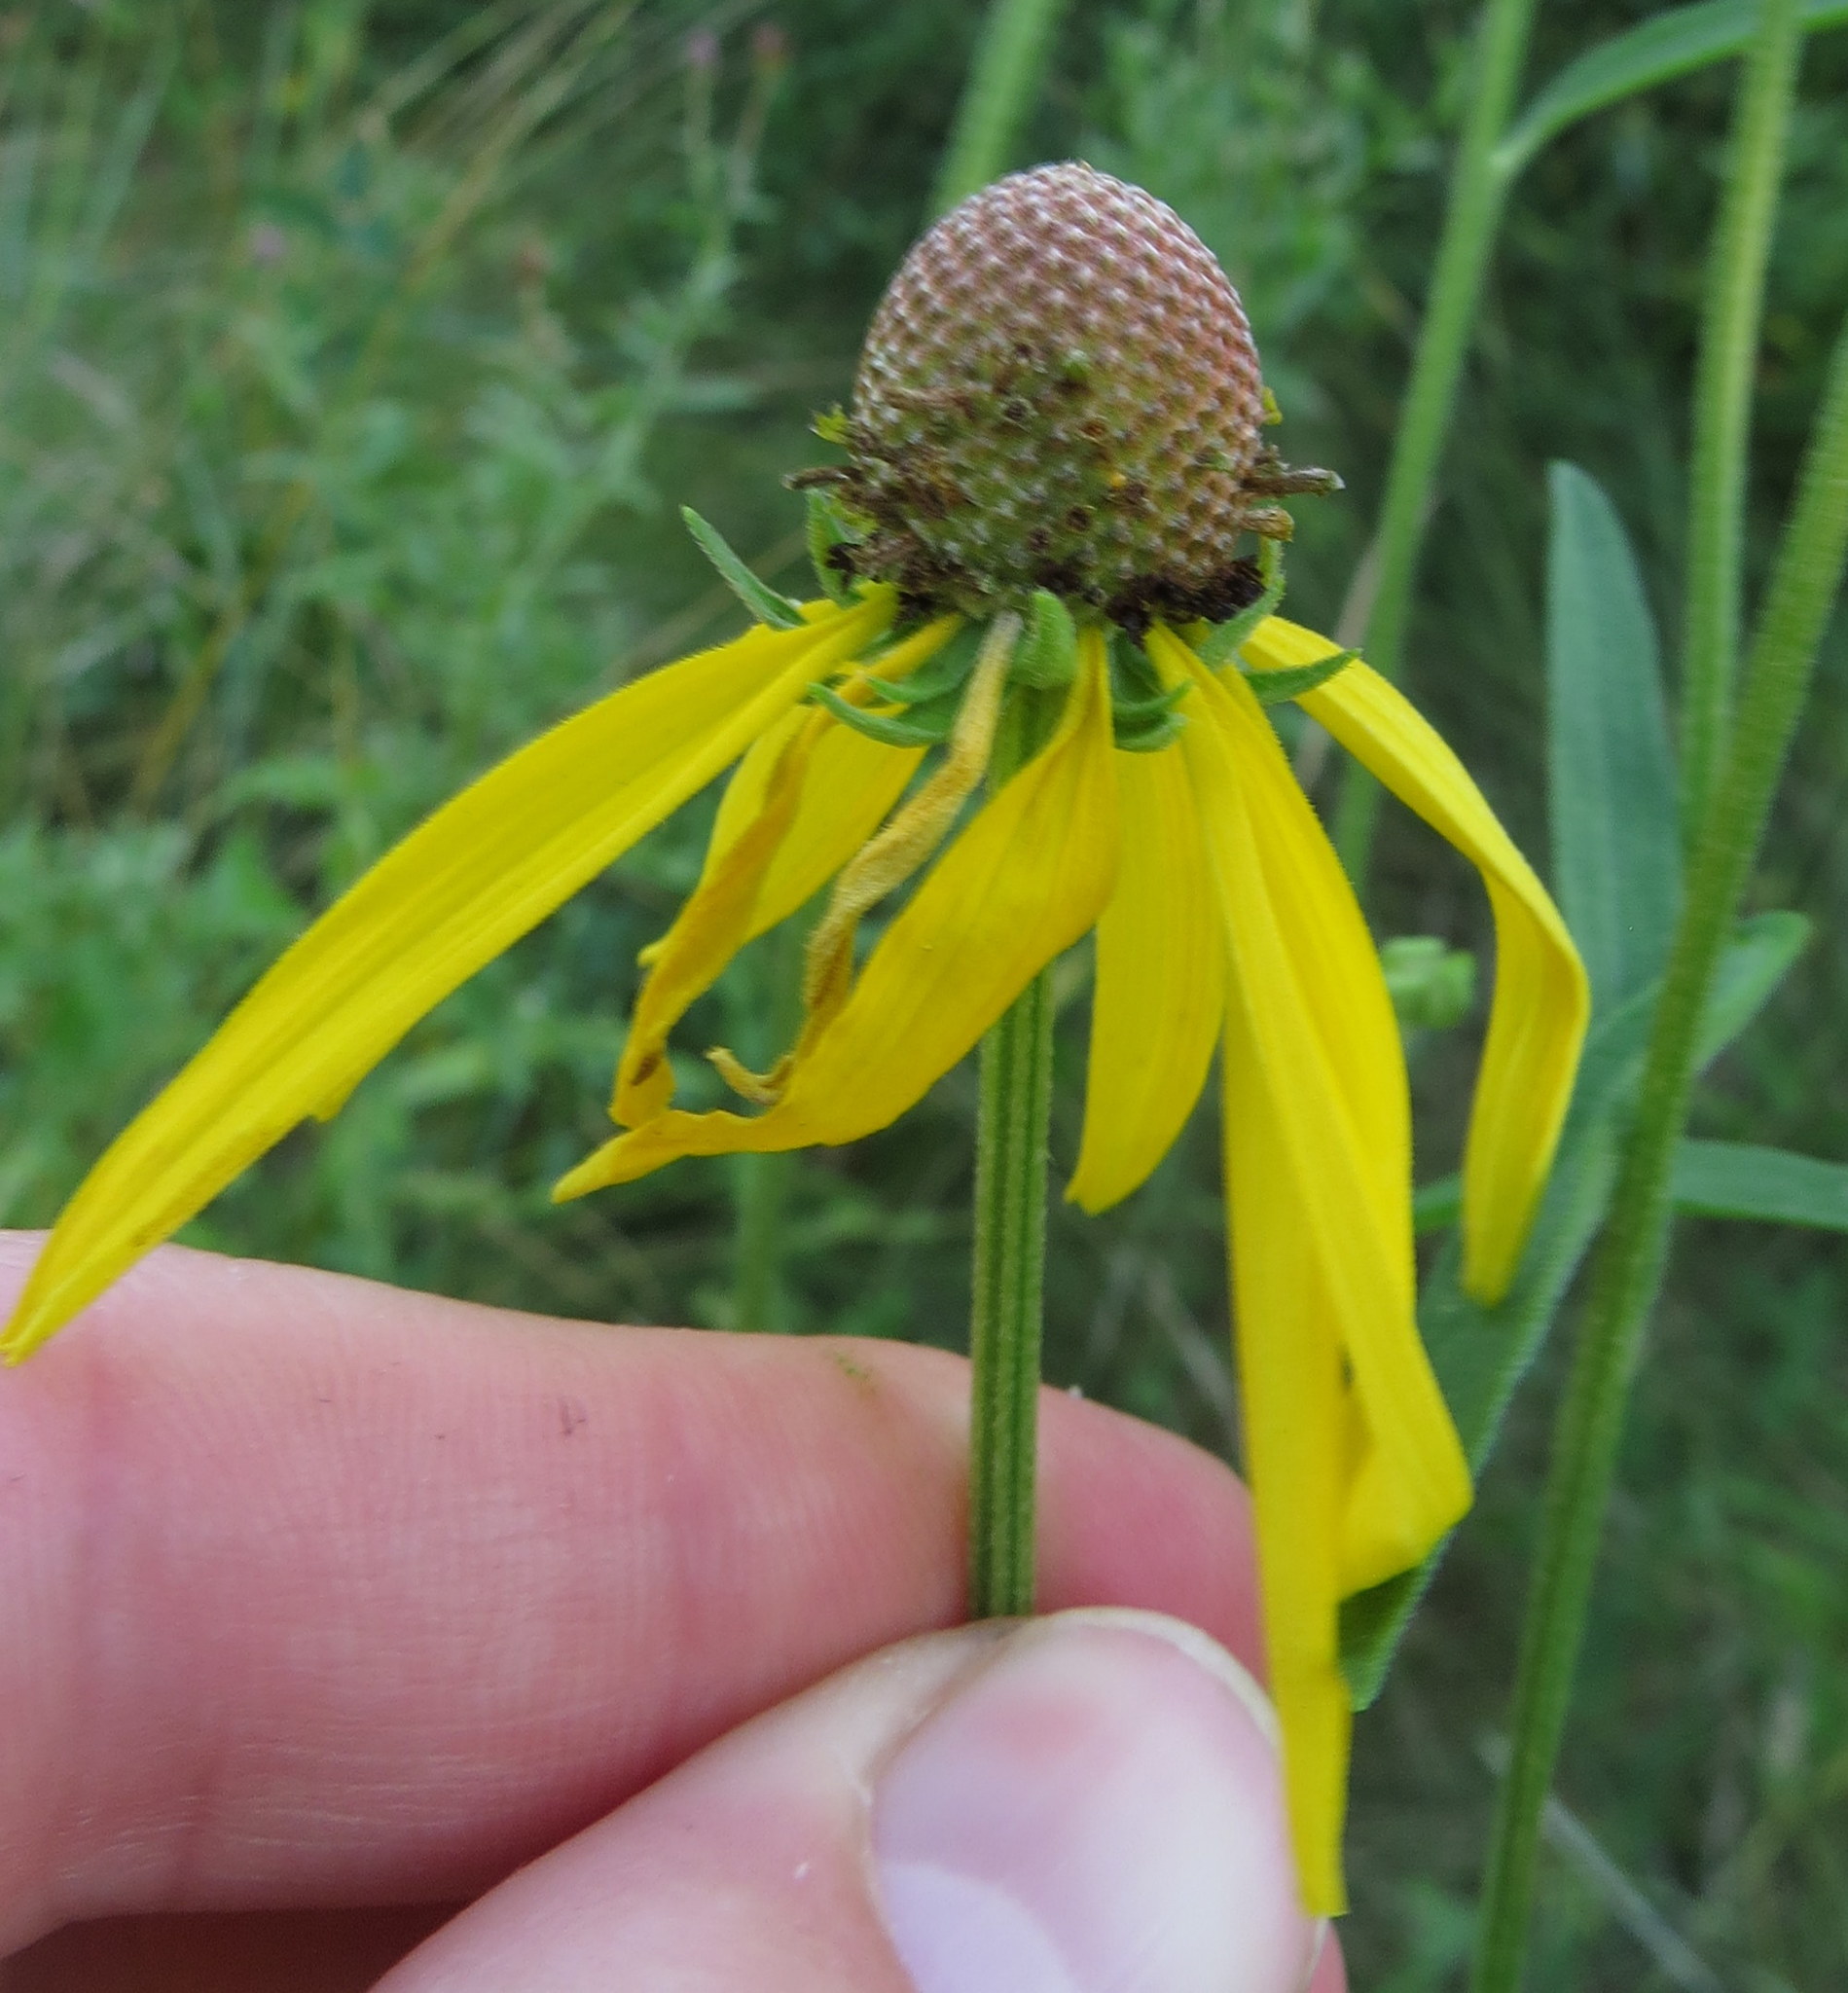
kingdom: Plantae
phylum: Tracheophyta
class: Magnoliopsida
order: Asterales
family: Asteraceae
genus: Ratibida
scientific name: Ratibida pinnata
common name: Drooping prairie-coneflower
